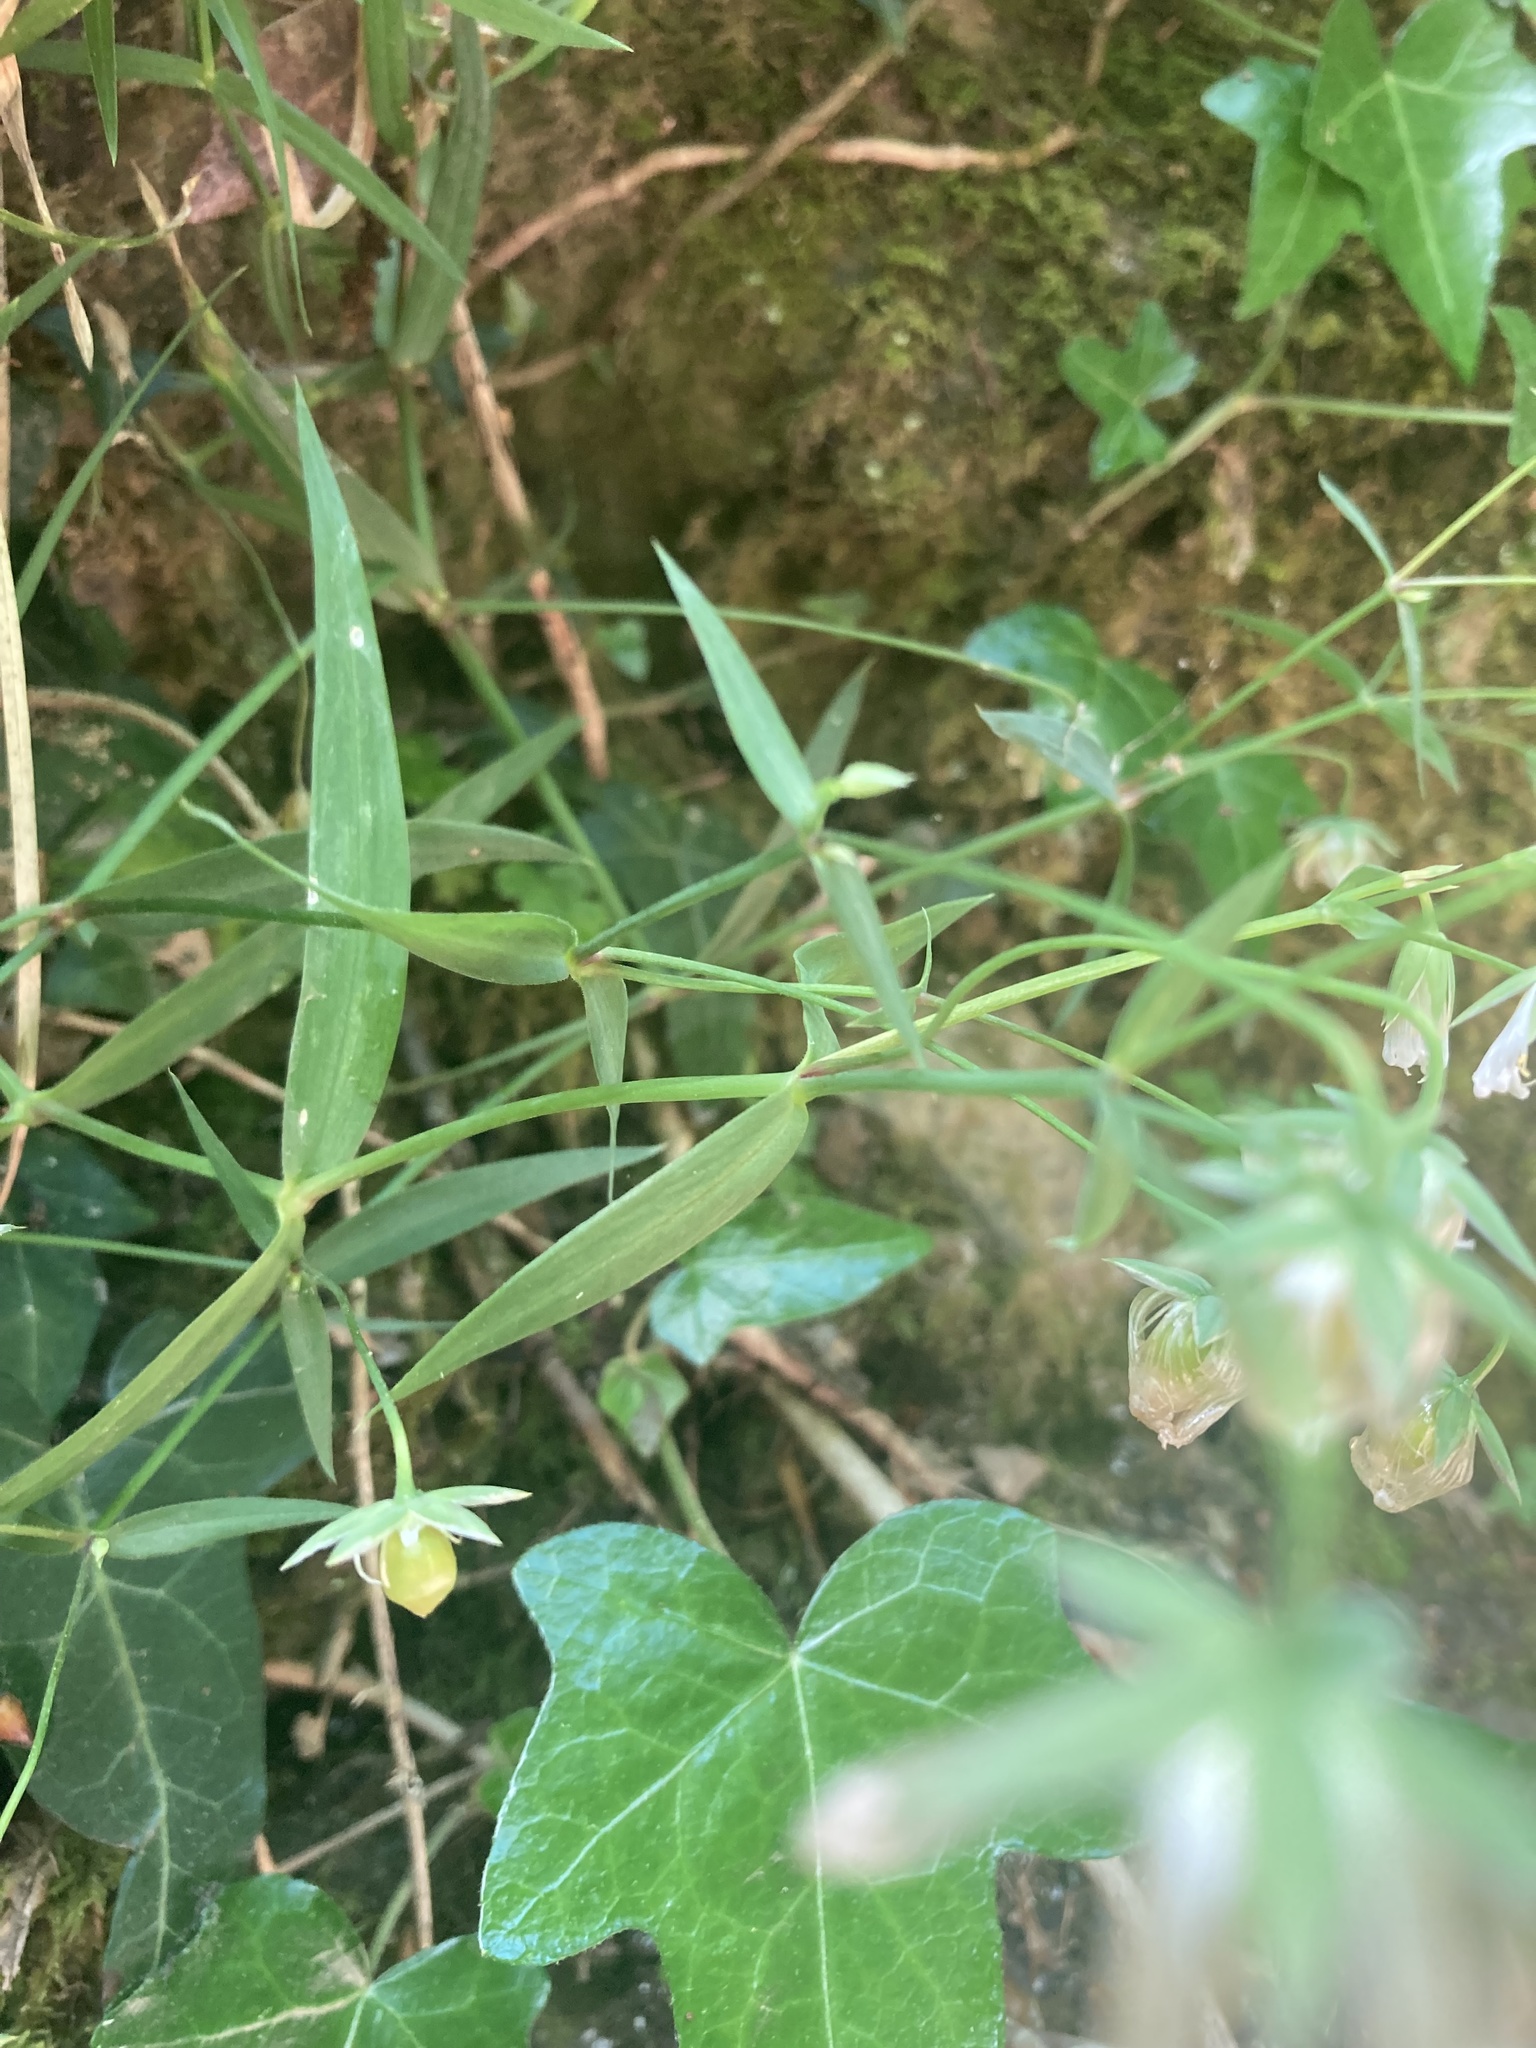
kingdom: Plantae
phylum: Tracheophyta
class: Magnoliopsida
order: Caryophyllales
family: Caryophyllaceae
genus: Rabelera
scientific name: Rabelera holostea
